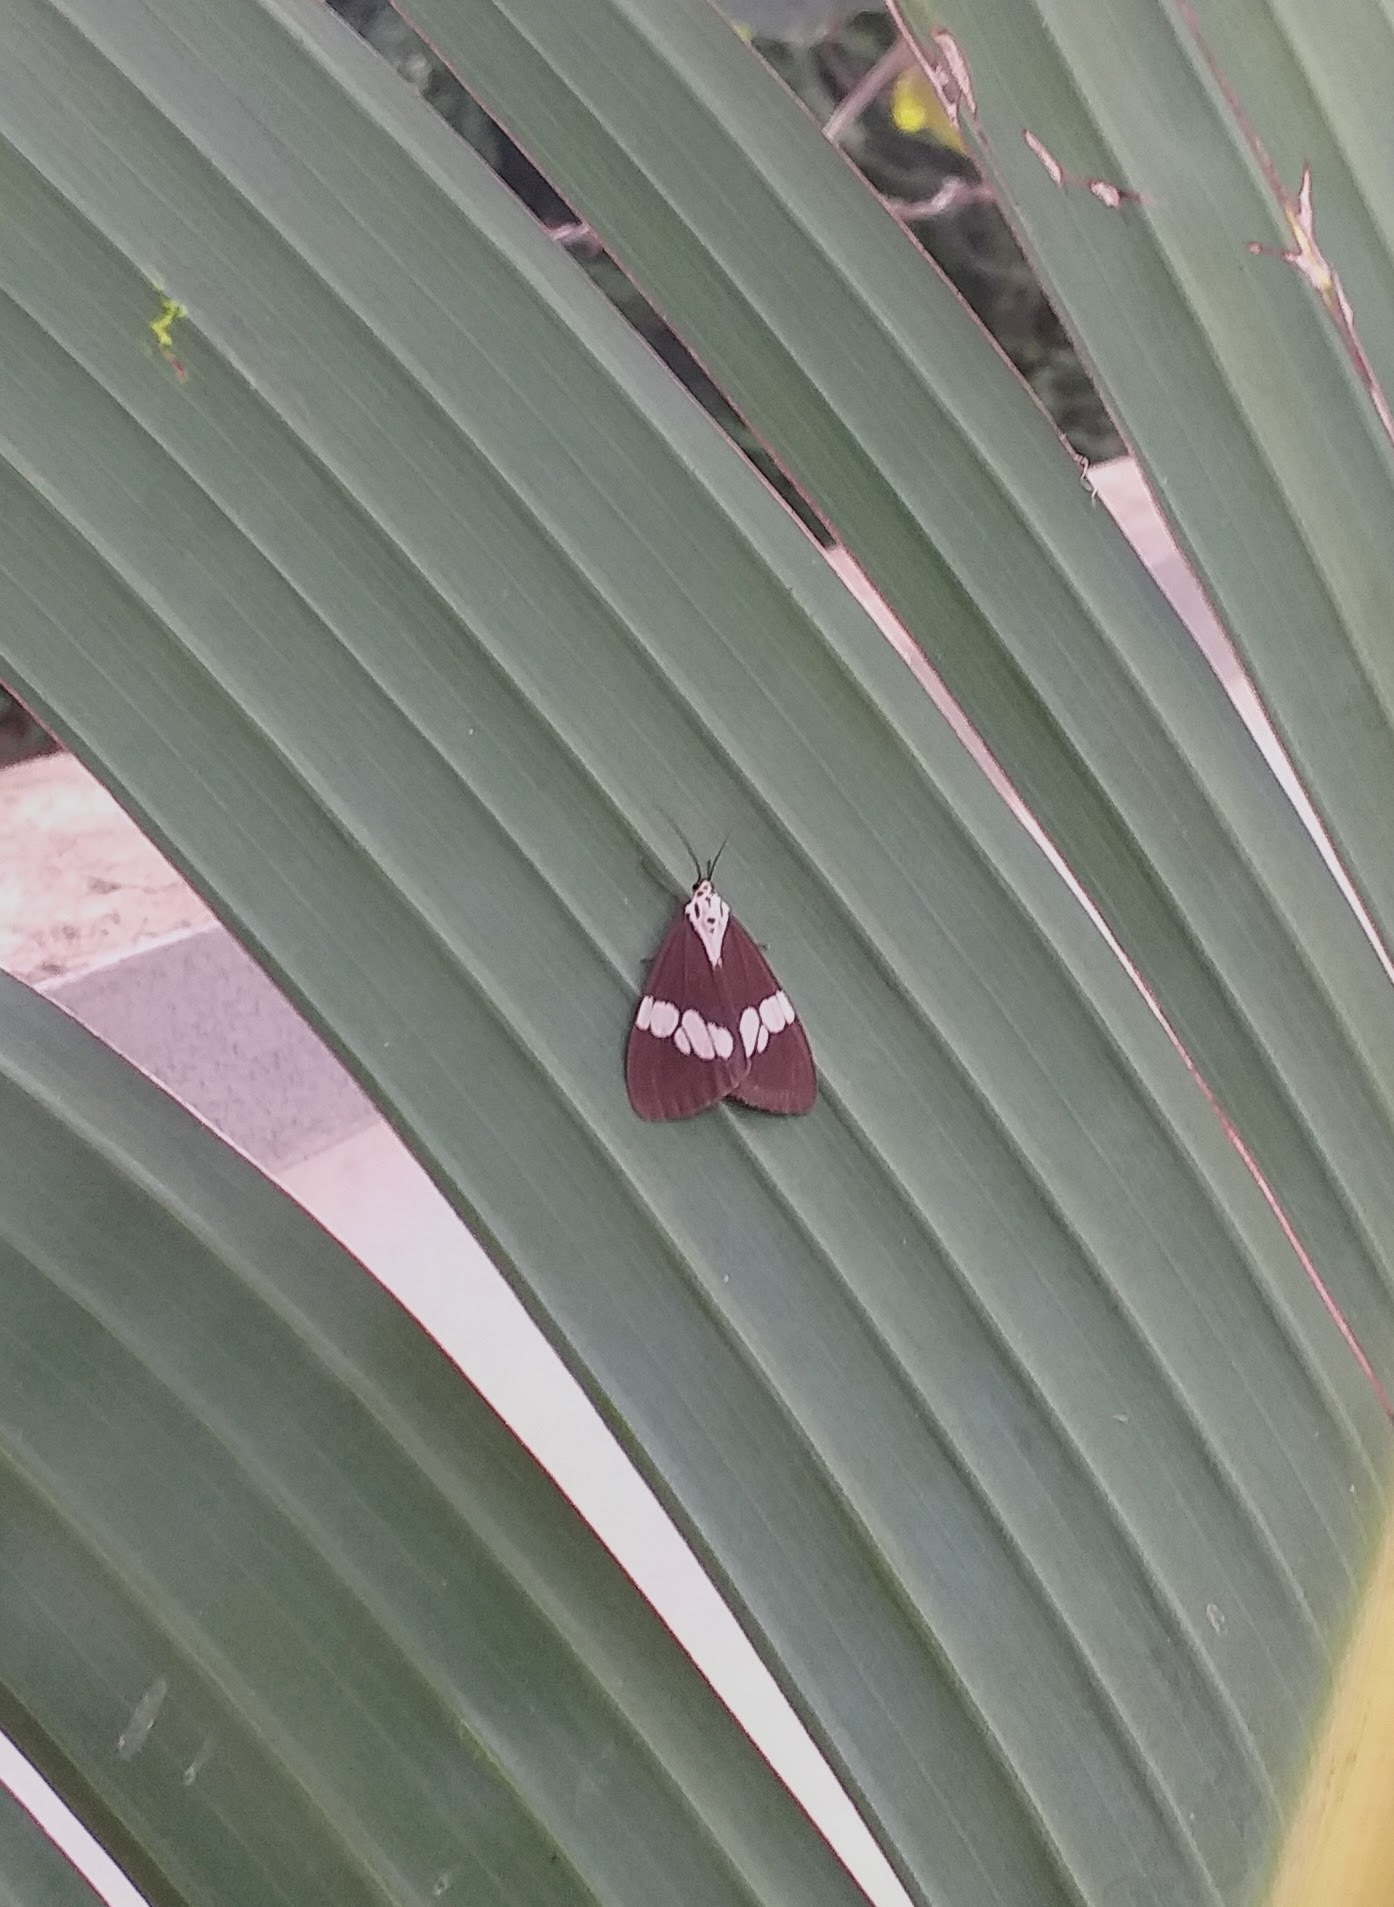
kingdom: Animalia
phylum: Arthropoda
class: Insecta
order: Lepidoptera
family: Erebidae
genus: Nyctemera
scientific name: Nyctemera lacticinia
